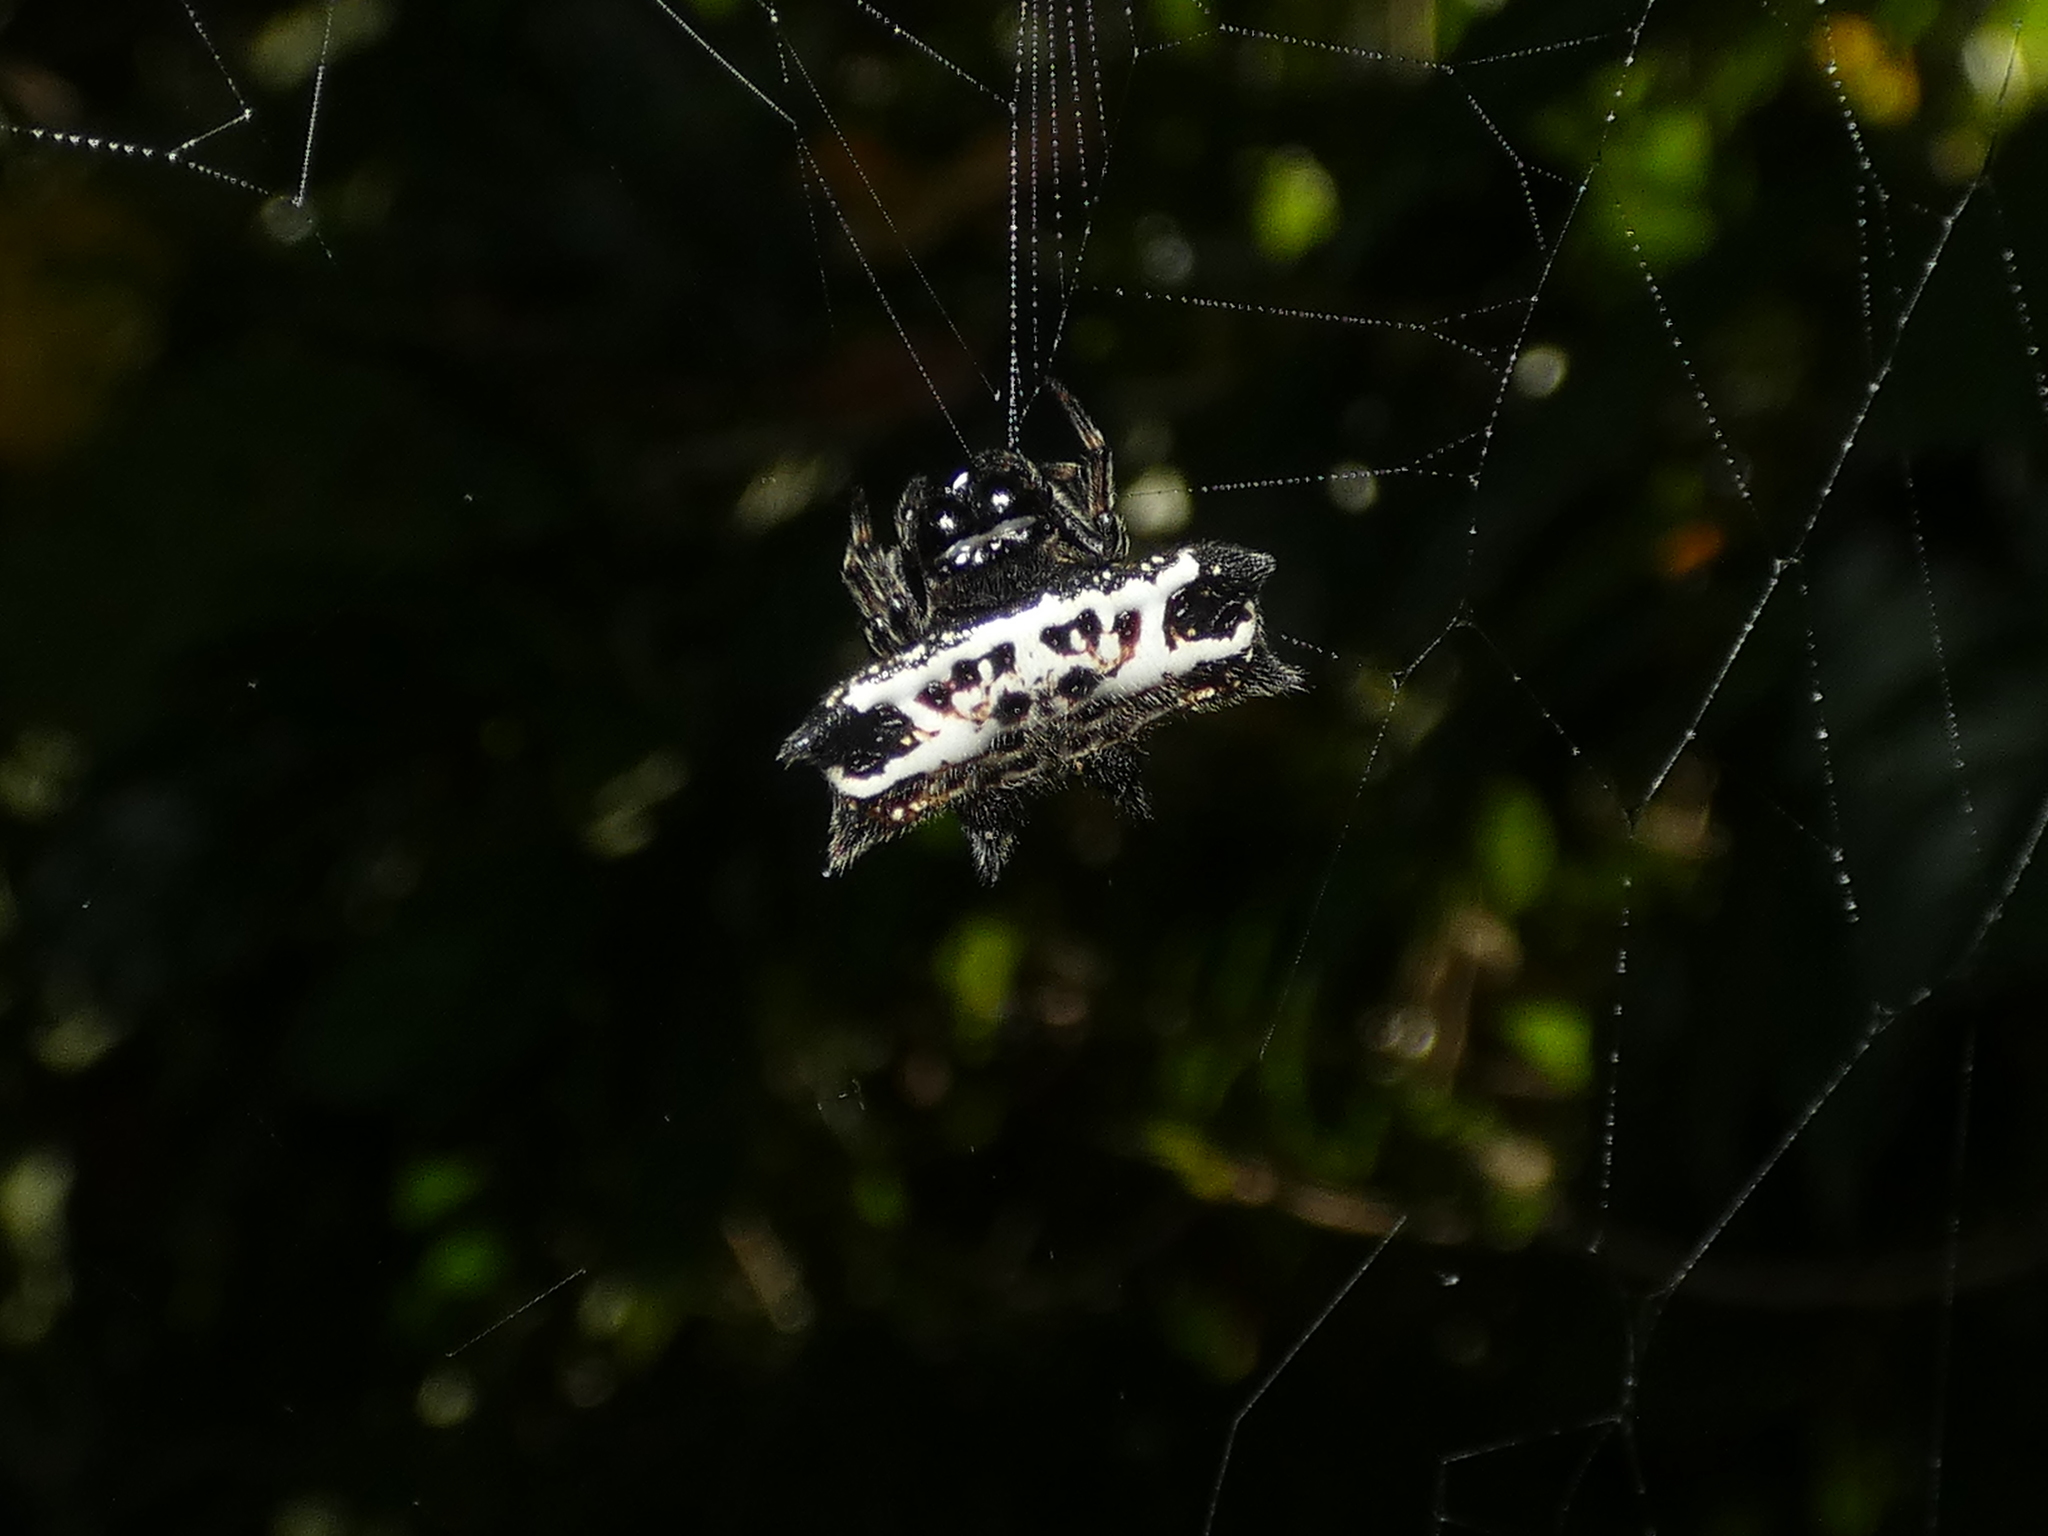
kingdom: Animalia
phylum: Arthropoda
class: Arachnida
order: Araneae
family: Araneidae
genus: Gasteracantha
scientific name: Gasteracantha cancriformis
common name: Orb weavers
